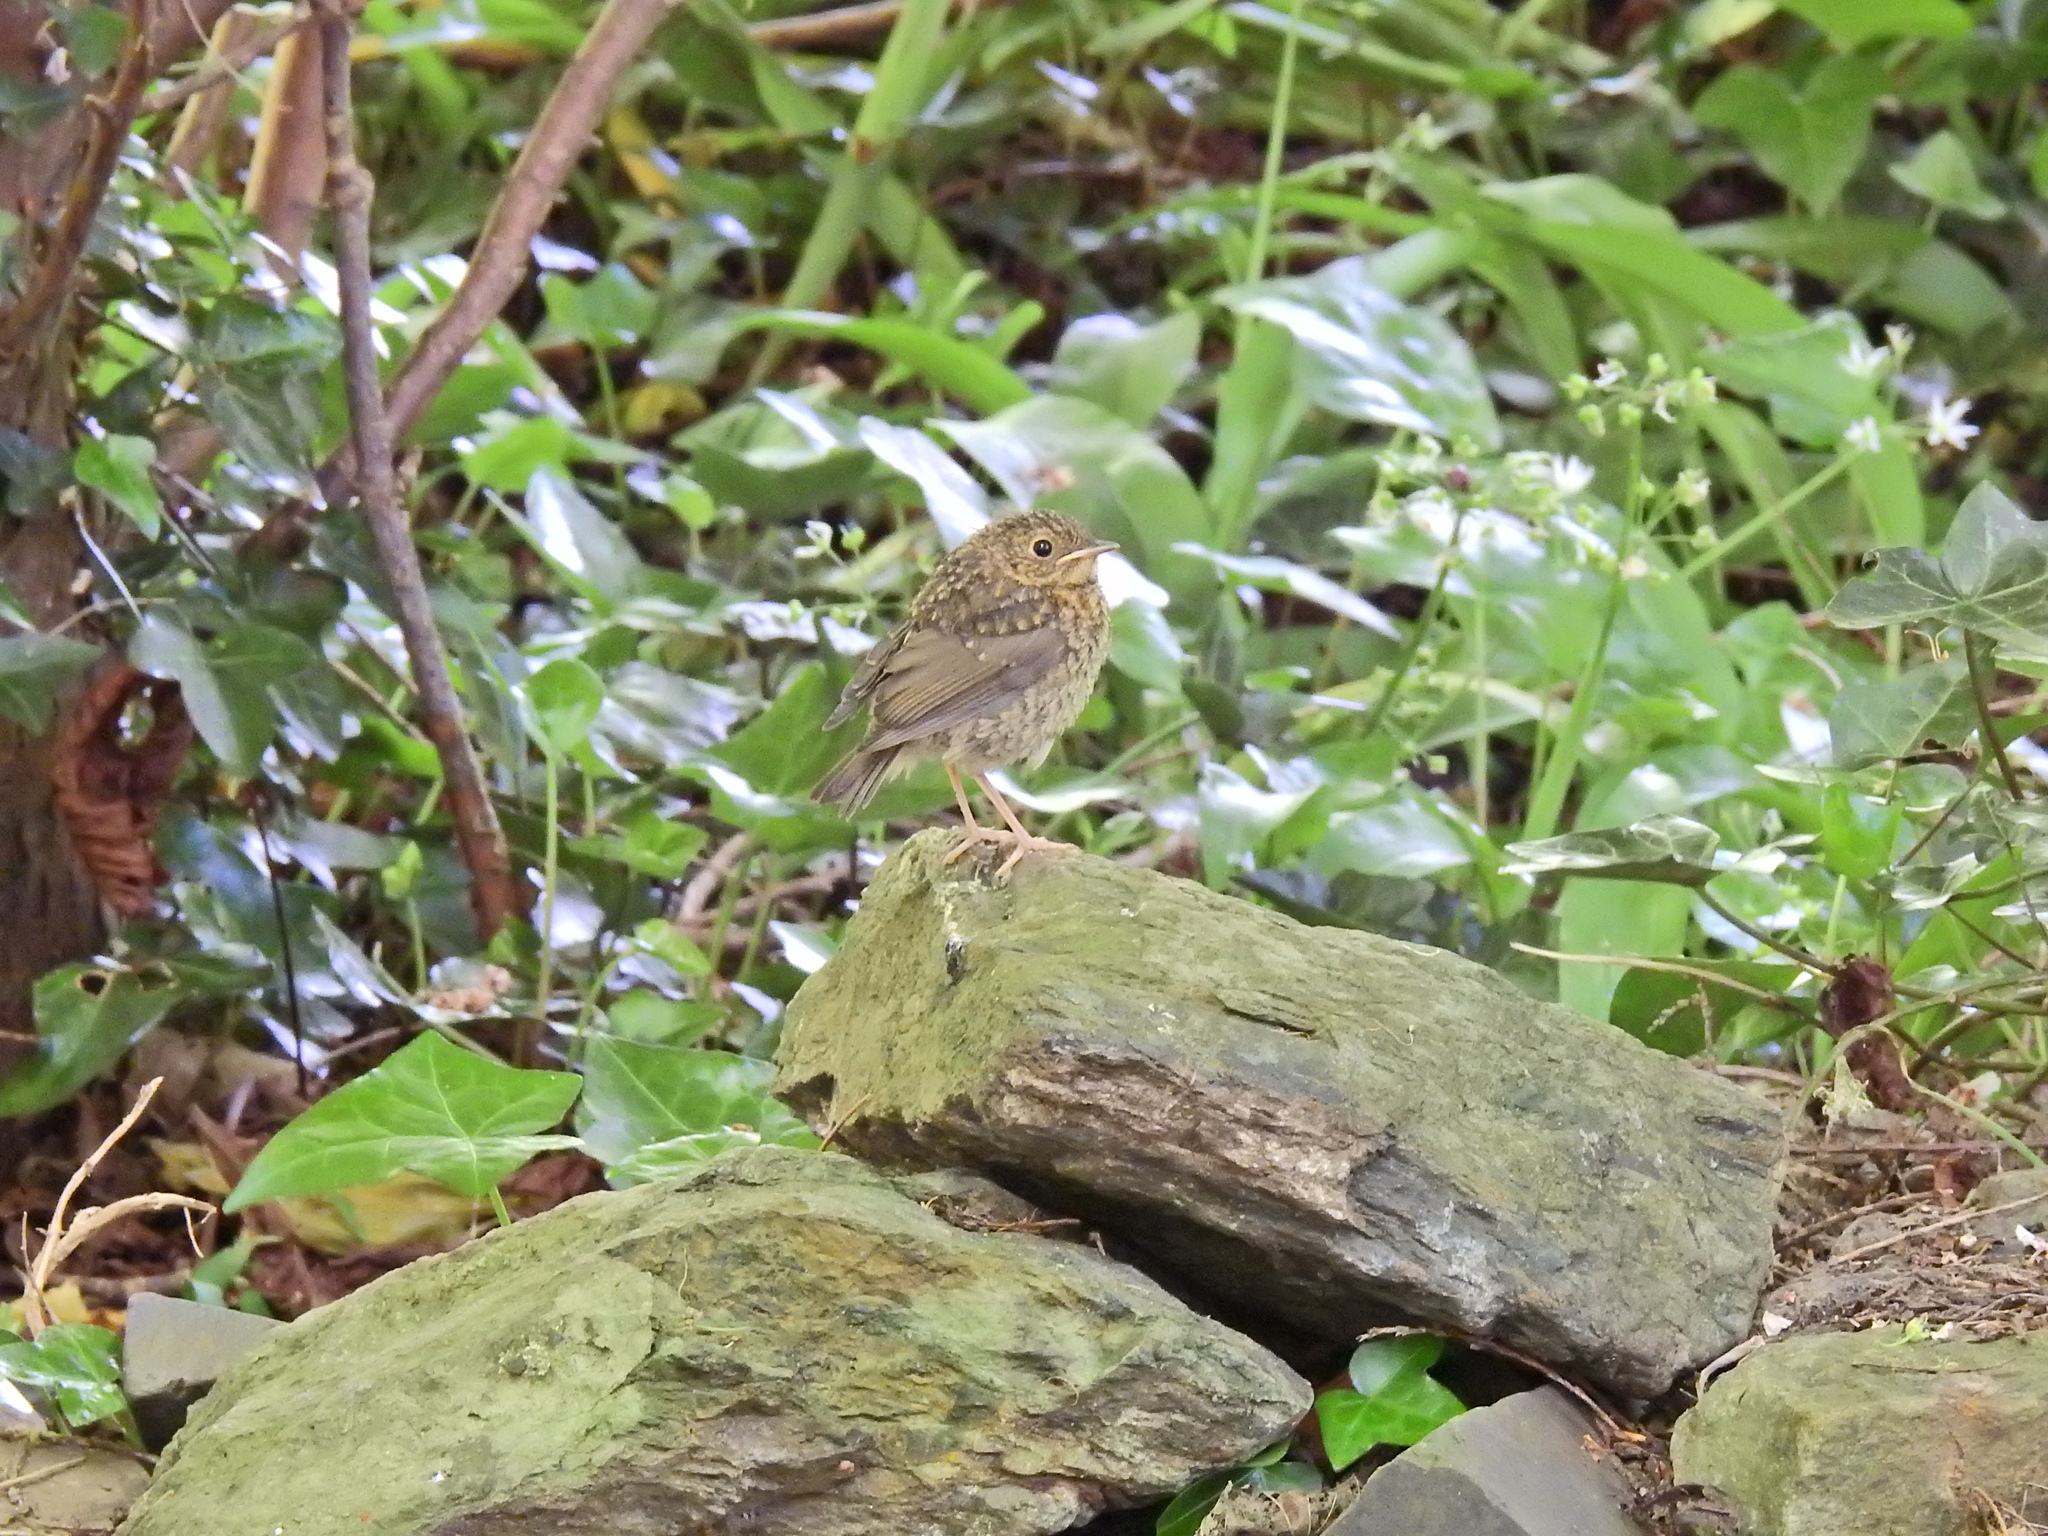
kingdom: Animalia
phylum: Chordata
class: Aves
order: Passeriformes
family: Muscicapidae
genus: Erithacus
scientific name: Erithacus rubecula
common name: European robin
